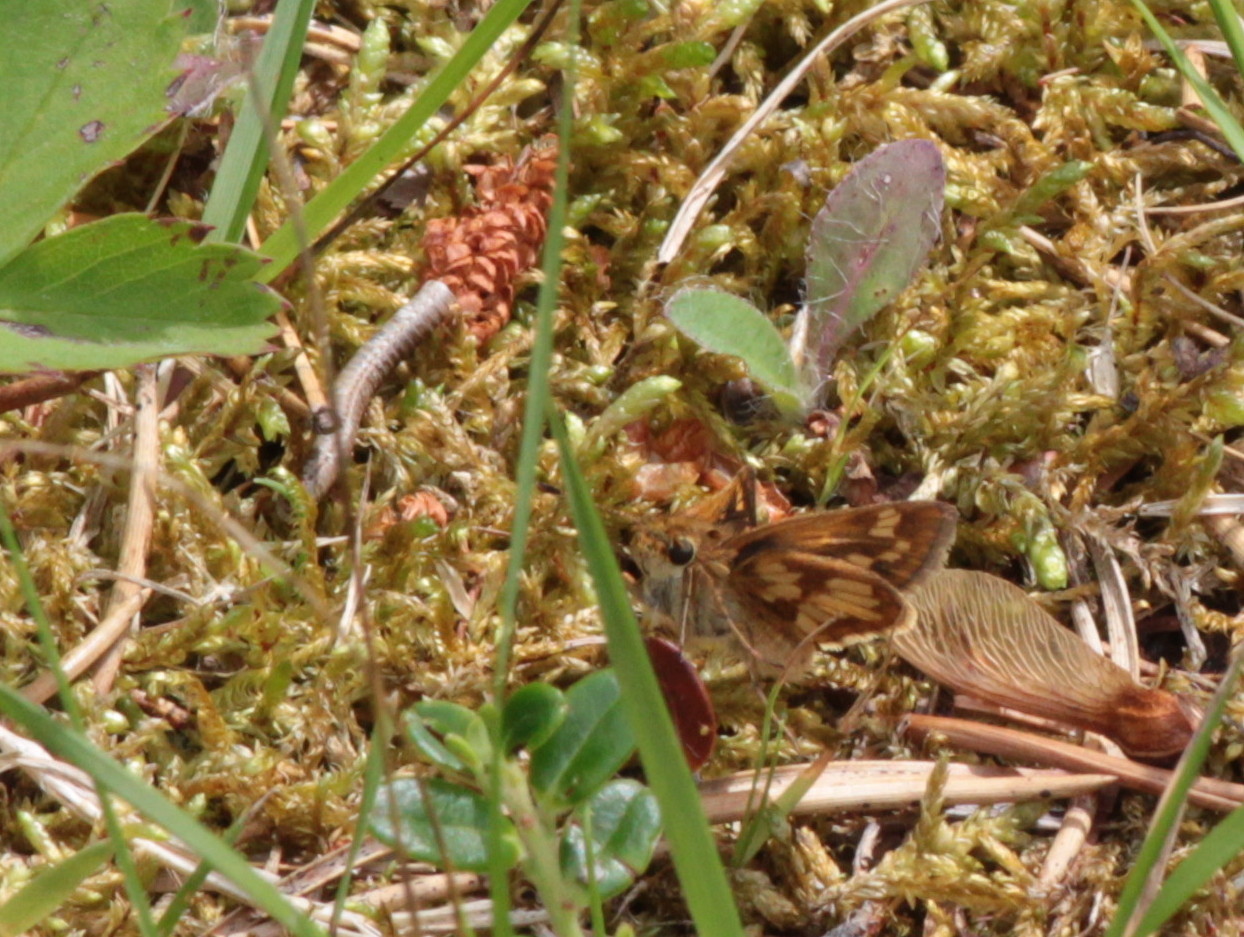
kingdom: Animalia
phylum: Arthropoda
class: Insecta
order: Lepidoptera
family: Hesperiidae
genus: Polites
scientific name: Polites coras
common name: Peck's skipper
